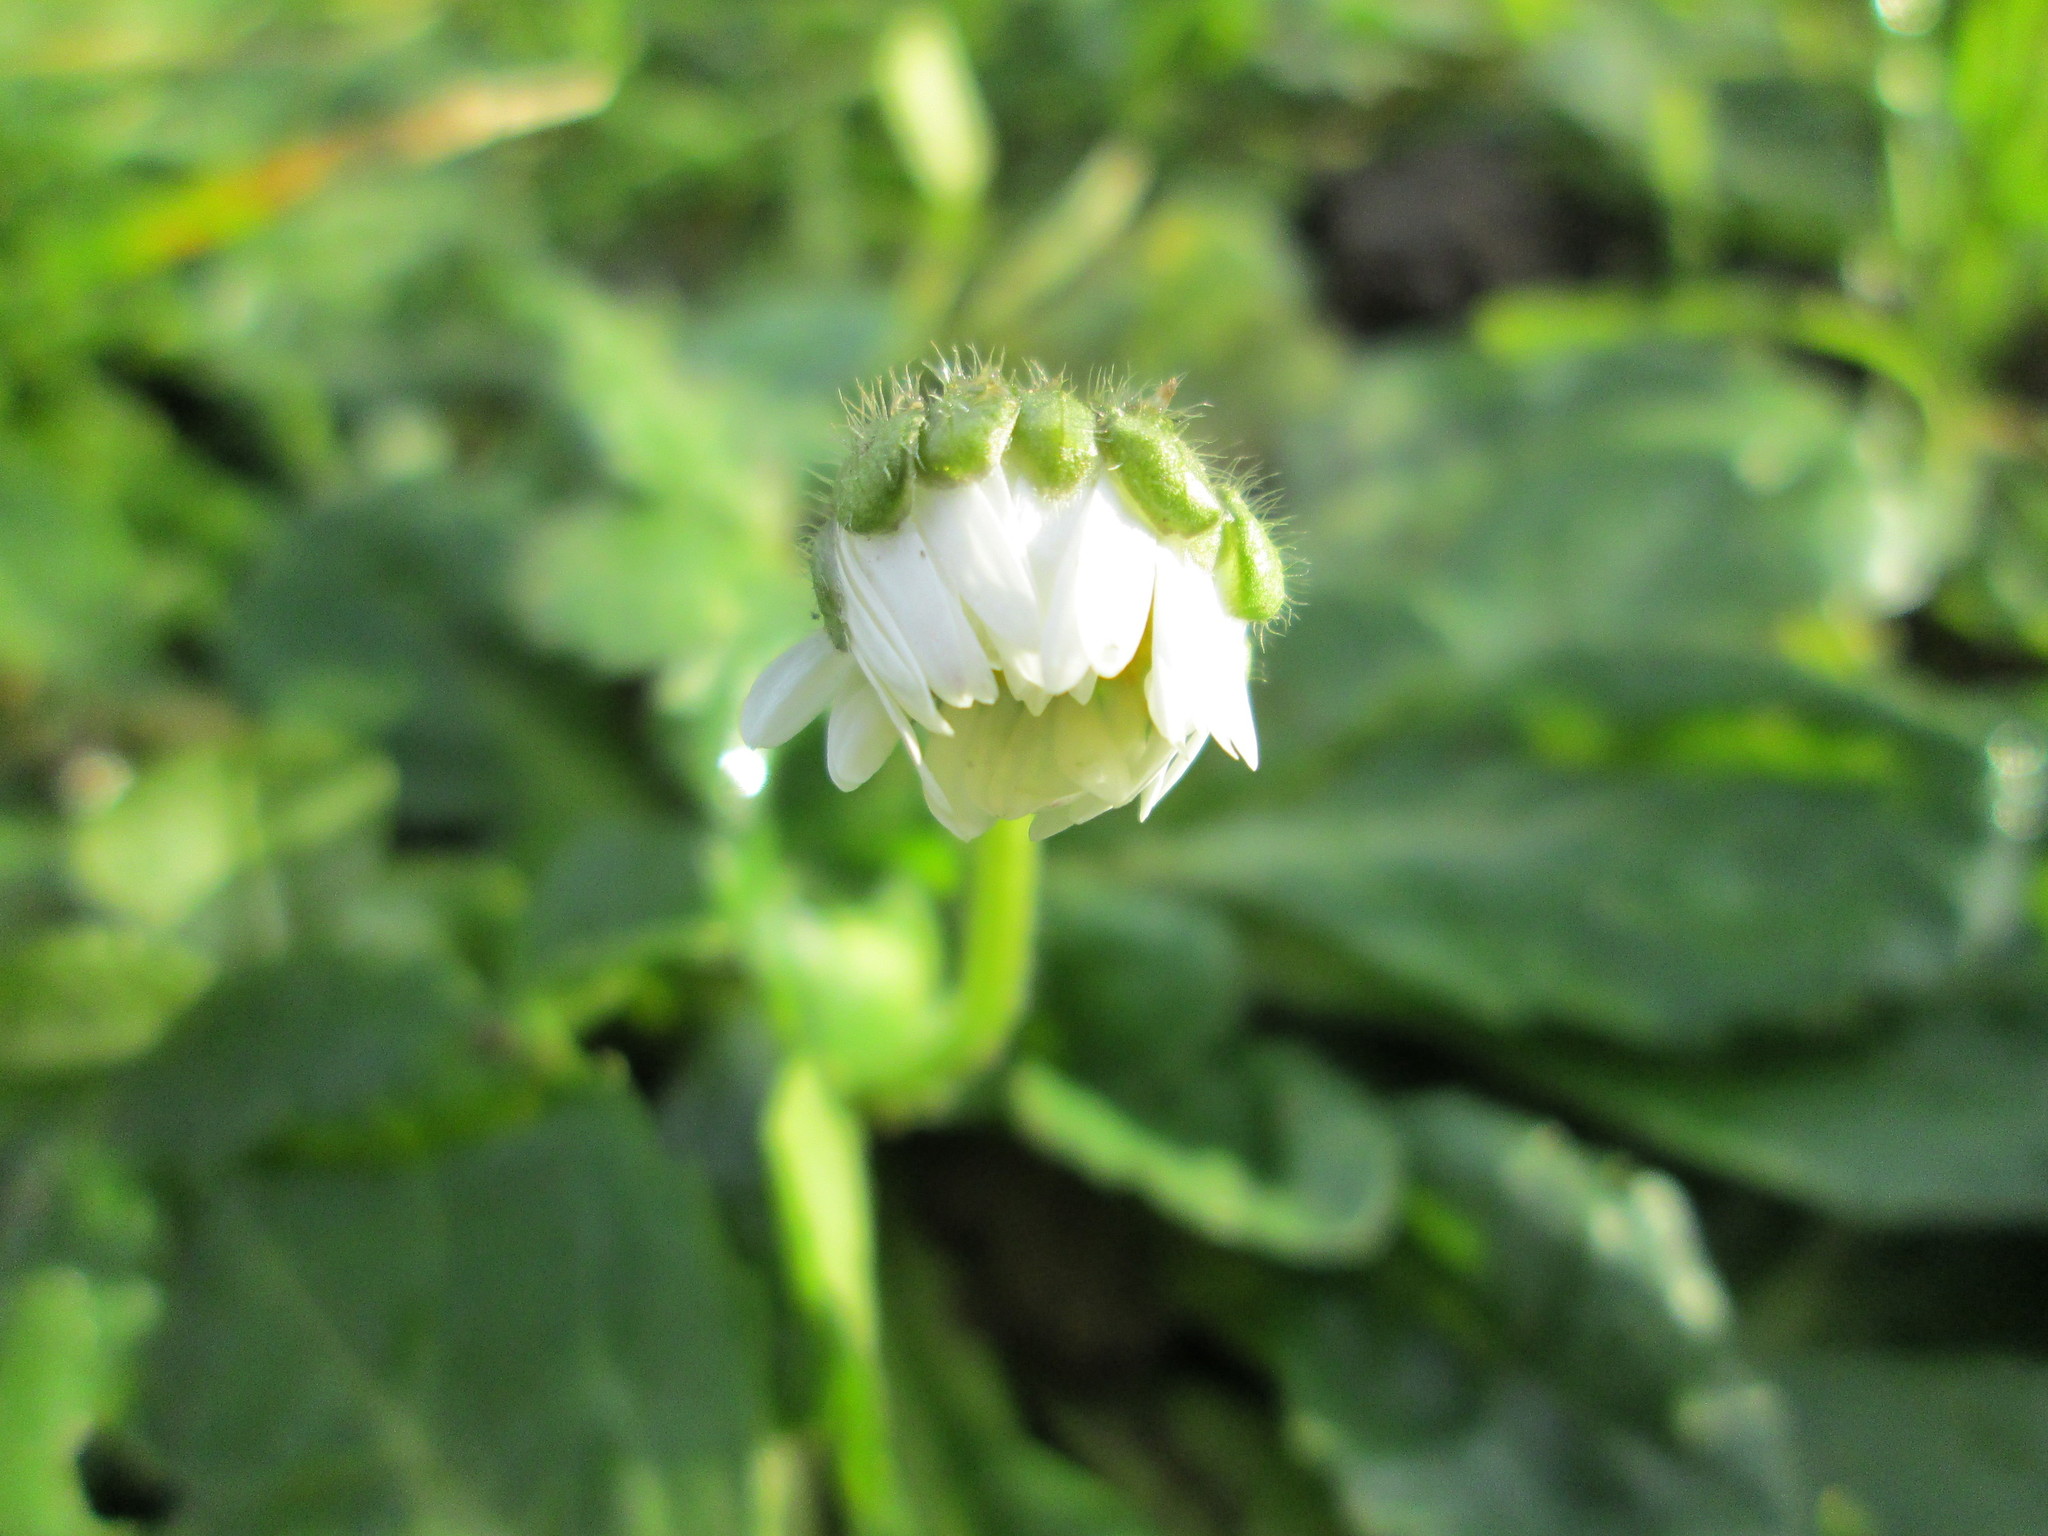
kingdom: Plantae
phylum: Tracheophyta
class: Magnoliopsida
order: Asterales
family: Asteraceae
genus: Bellis
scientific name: Bellis perennis
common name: Lawndaisy
